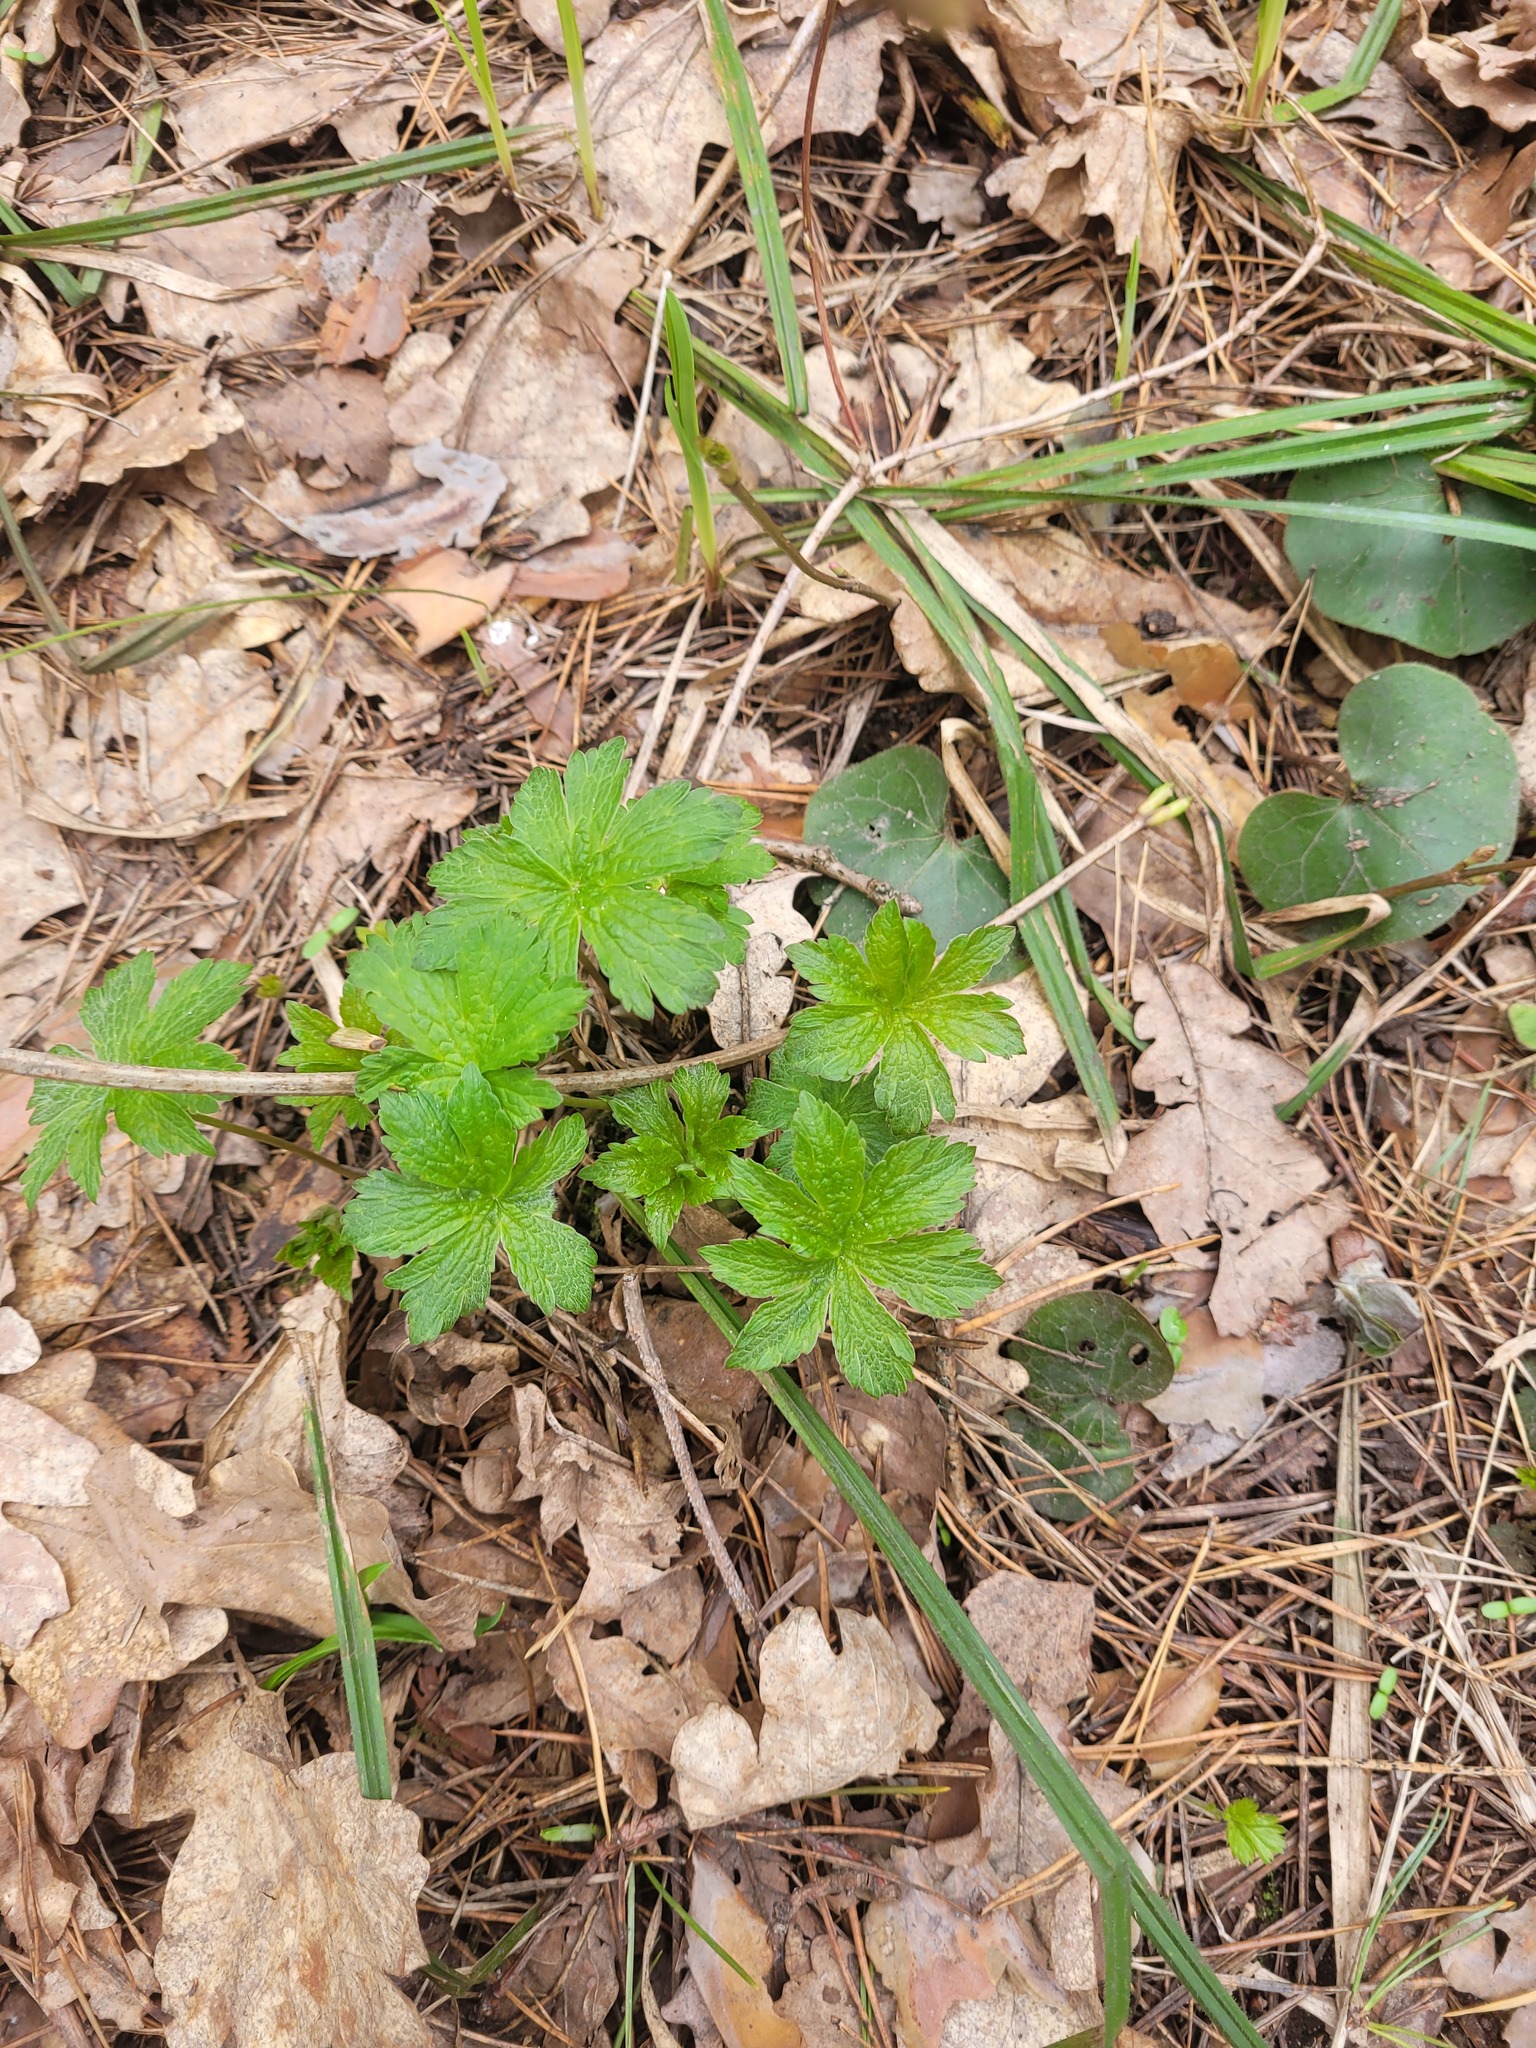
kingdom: Plantae
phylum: Tracheophyta
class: Magnoliopsida
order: Geraniales
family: Geraniaceae
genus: Geranium
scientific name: Geranium sylvaticum
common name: Wood crane's-bill
